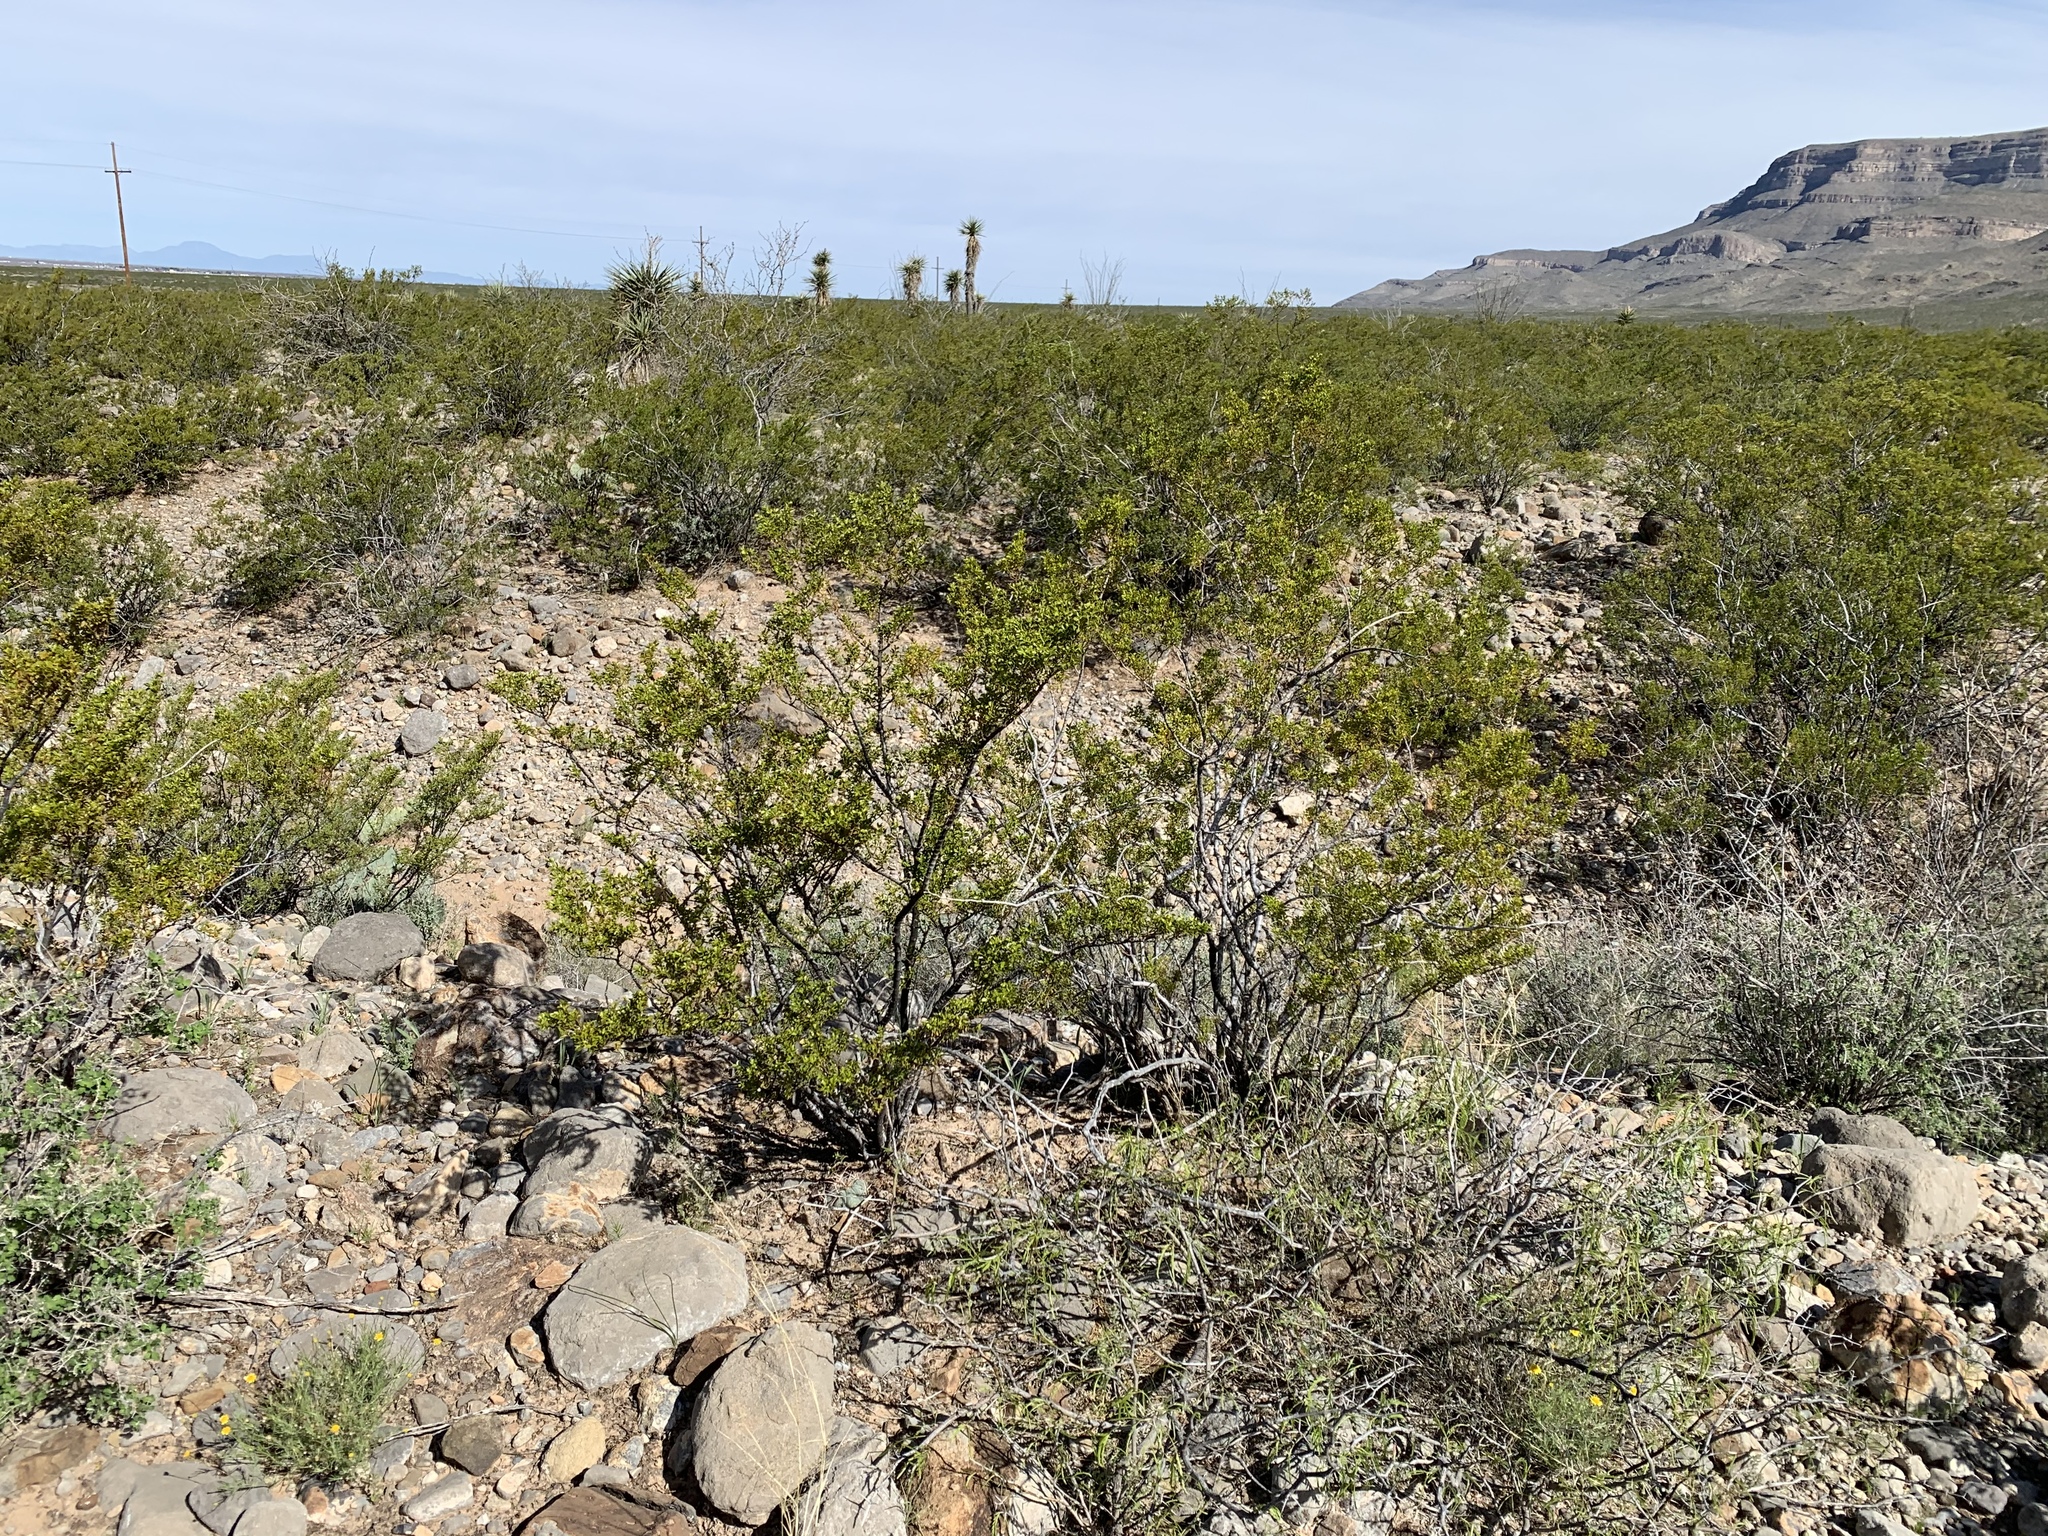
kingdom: Plantae
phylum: Tracheophyta
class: Magnoliopsida
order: Zygophyllales
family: Zygophyllaceae
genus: Larrea
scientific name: Larrea tridentata
